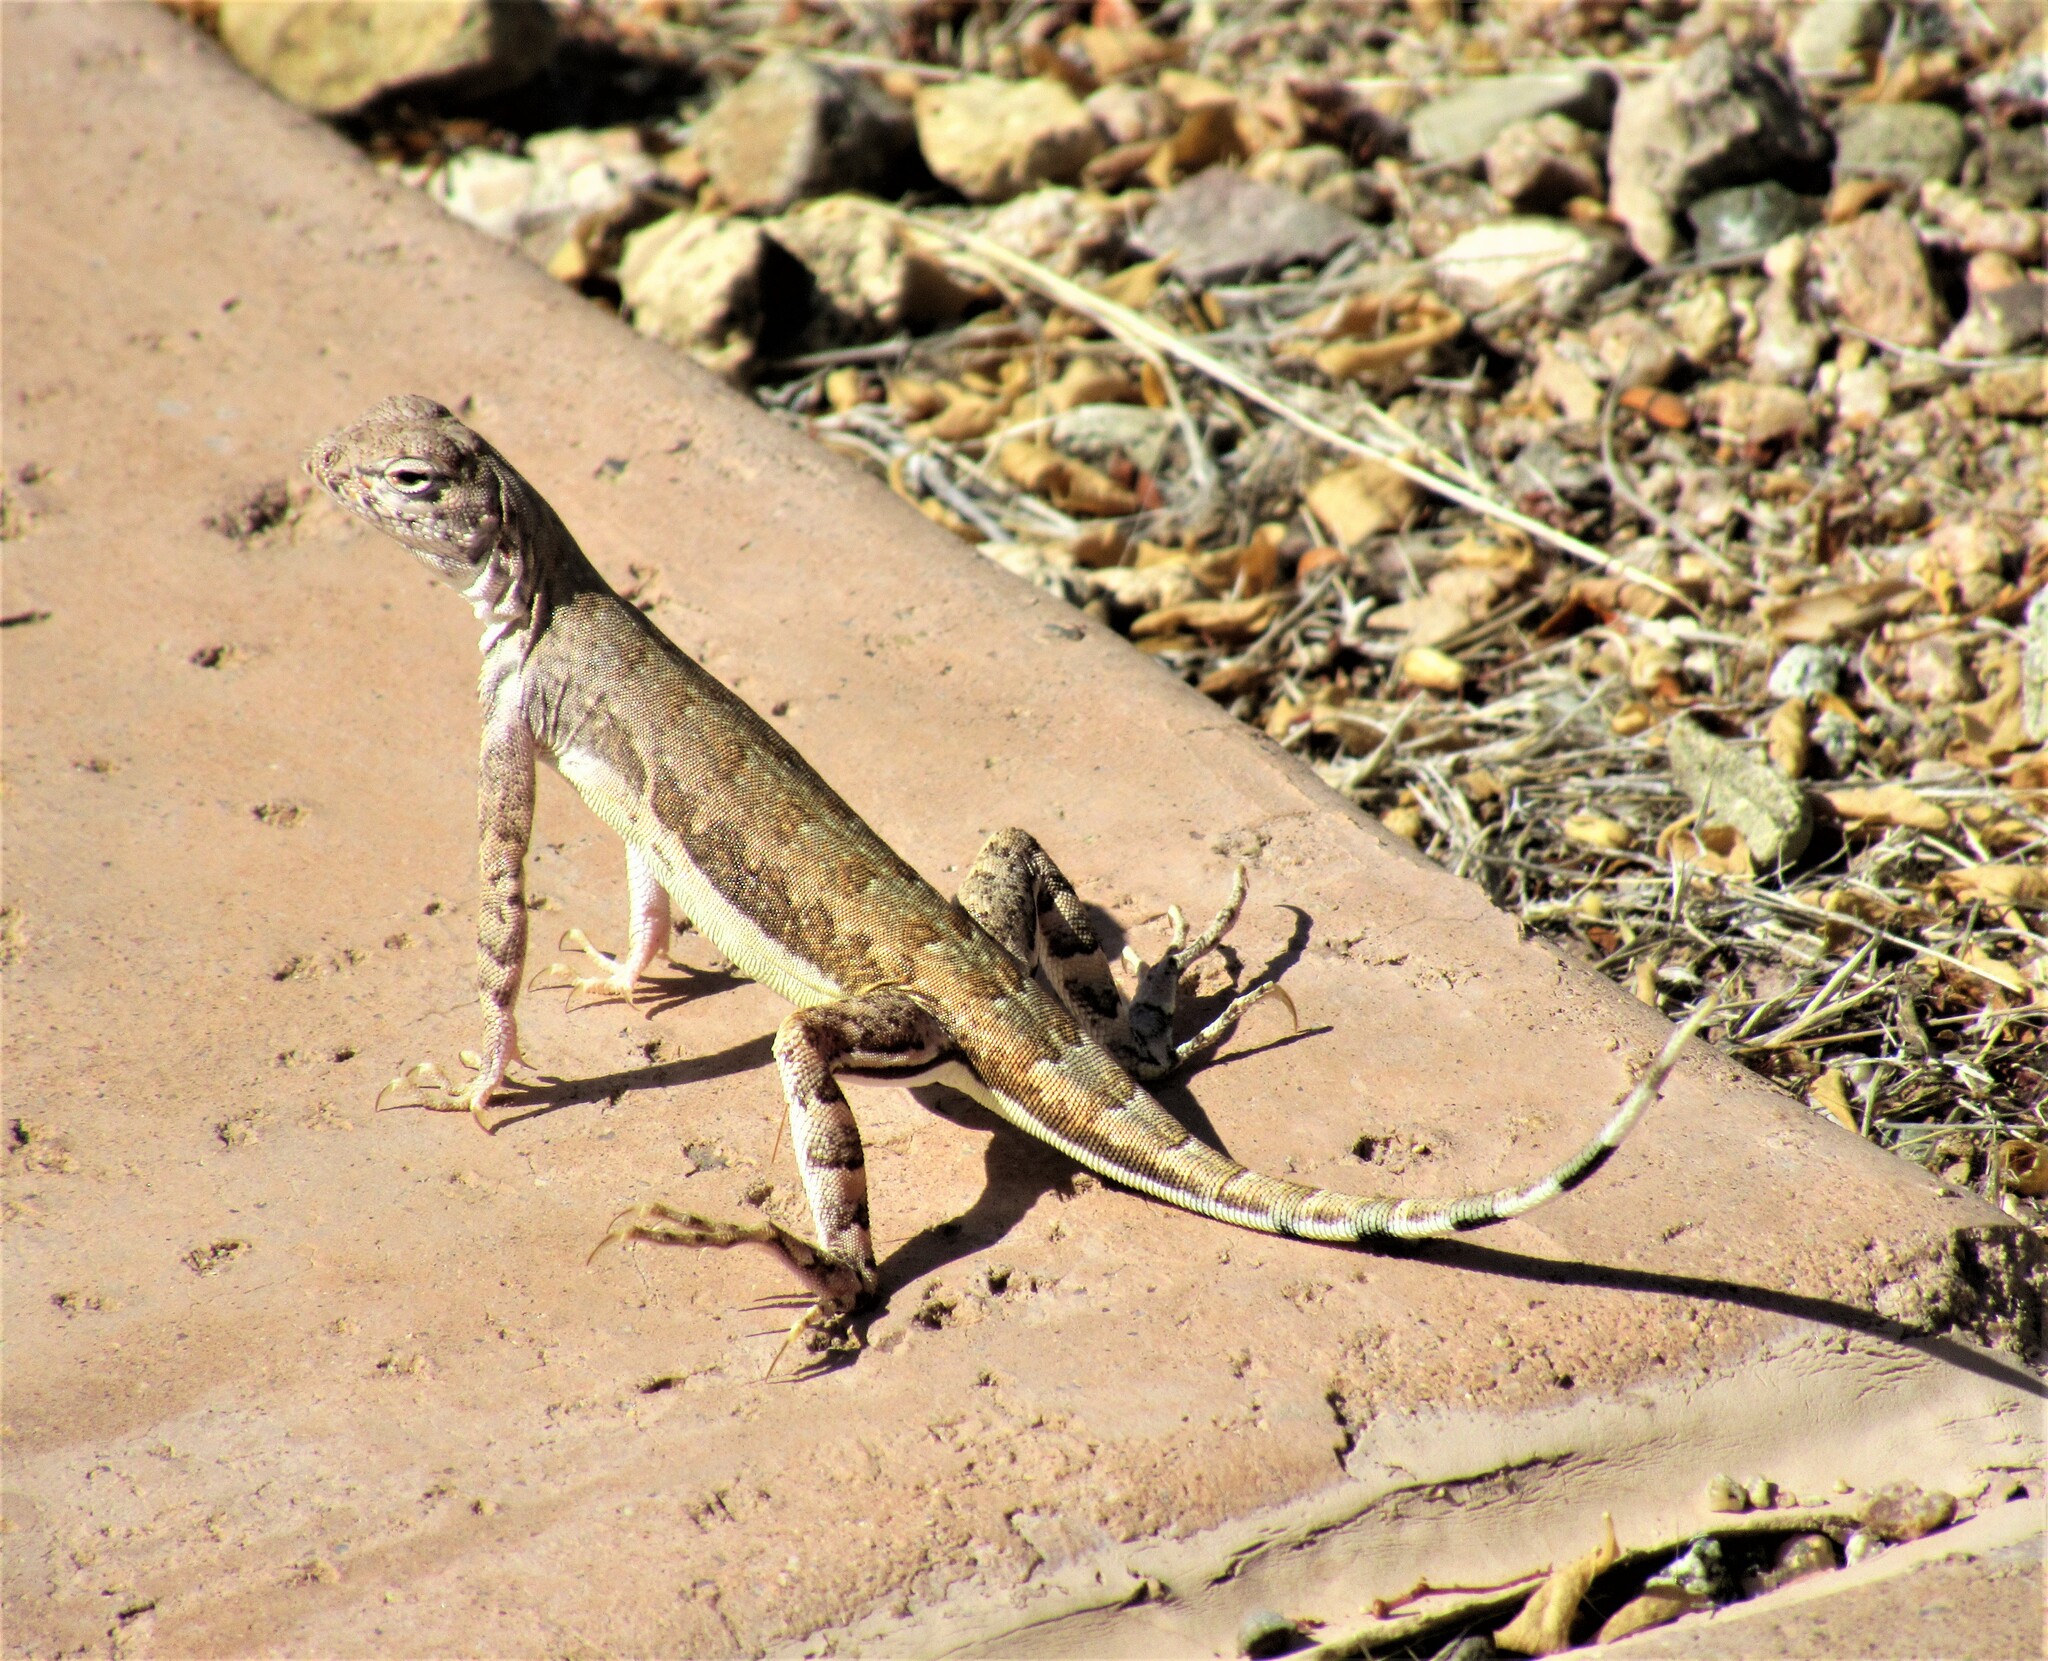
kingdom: Animalia
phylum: Chordata
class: Squamata
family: Phrynosomatidae
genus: Callisaurus
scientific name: Callisaurus draconoides
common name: Zebra-tailed lizard
